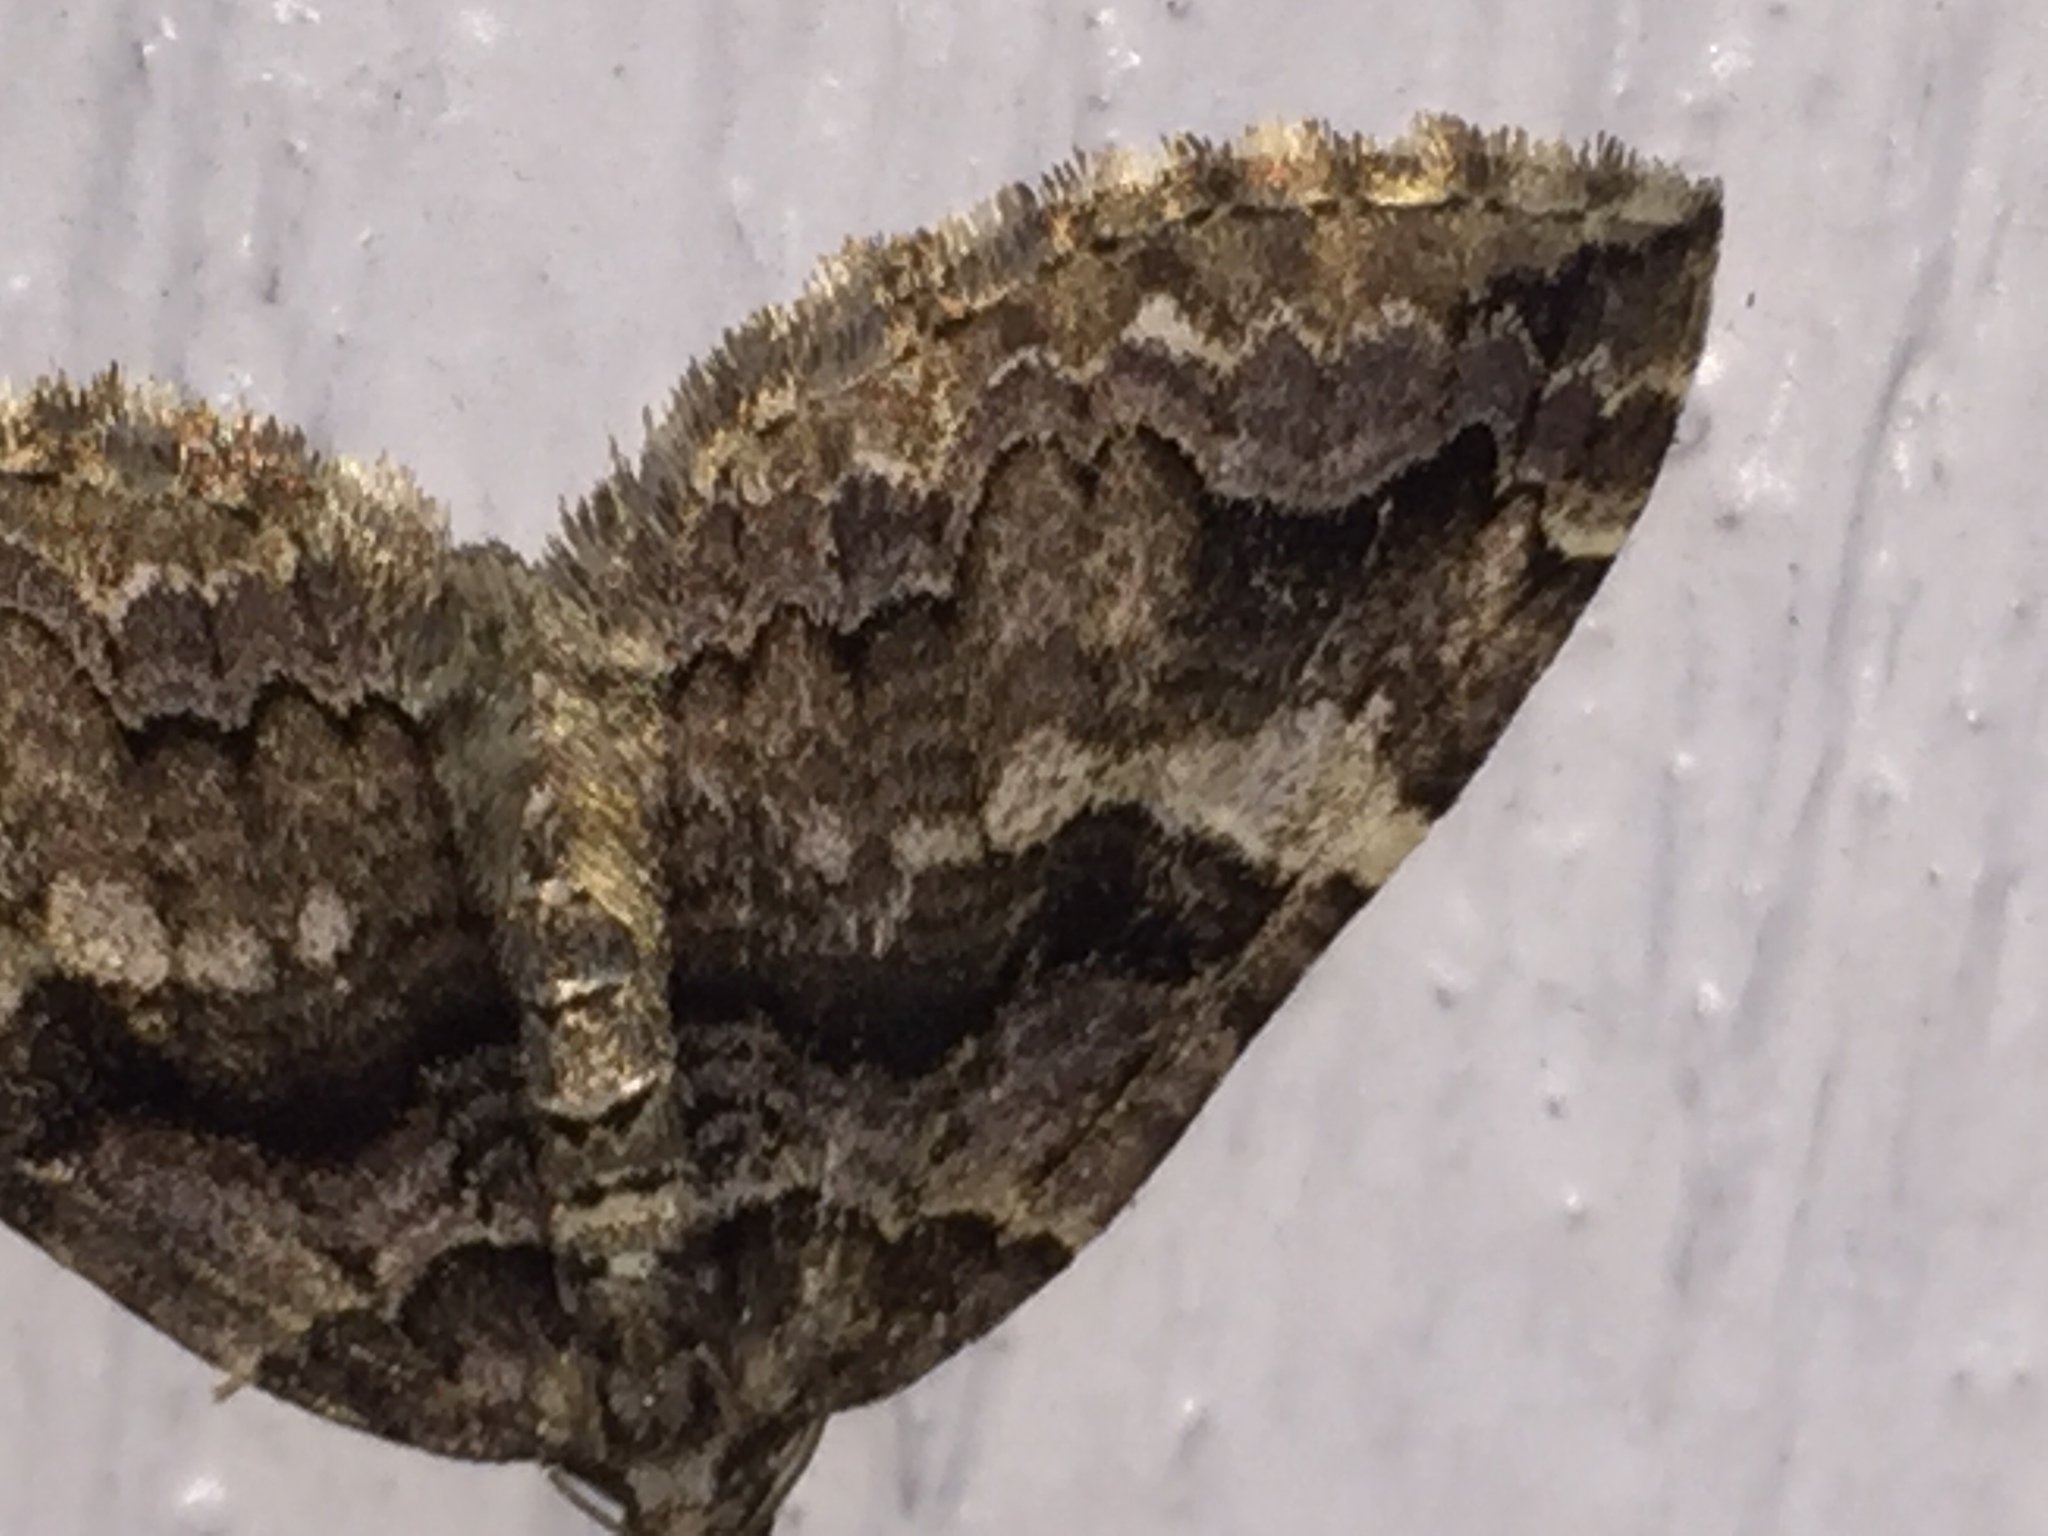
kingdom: Animalia
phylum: Arthropoda
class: Insecta
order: Lepidoptera
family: Geometridae
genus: Anticlea
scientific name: Anticlea vasiliata
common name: Variable carpet
